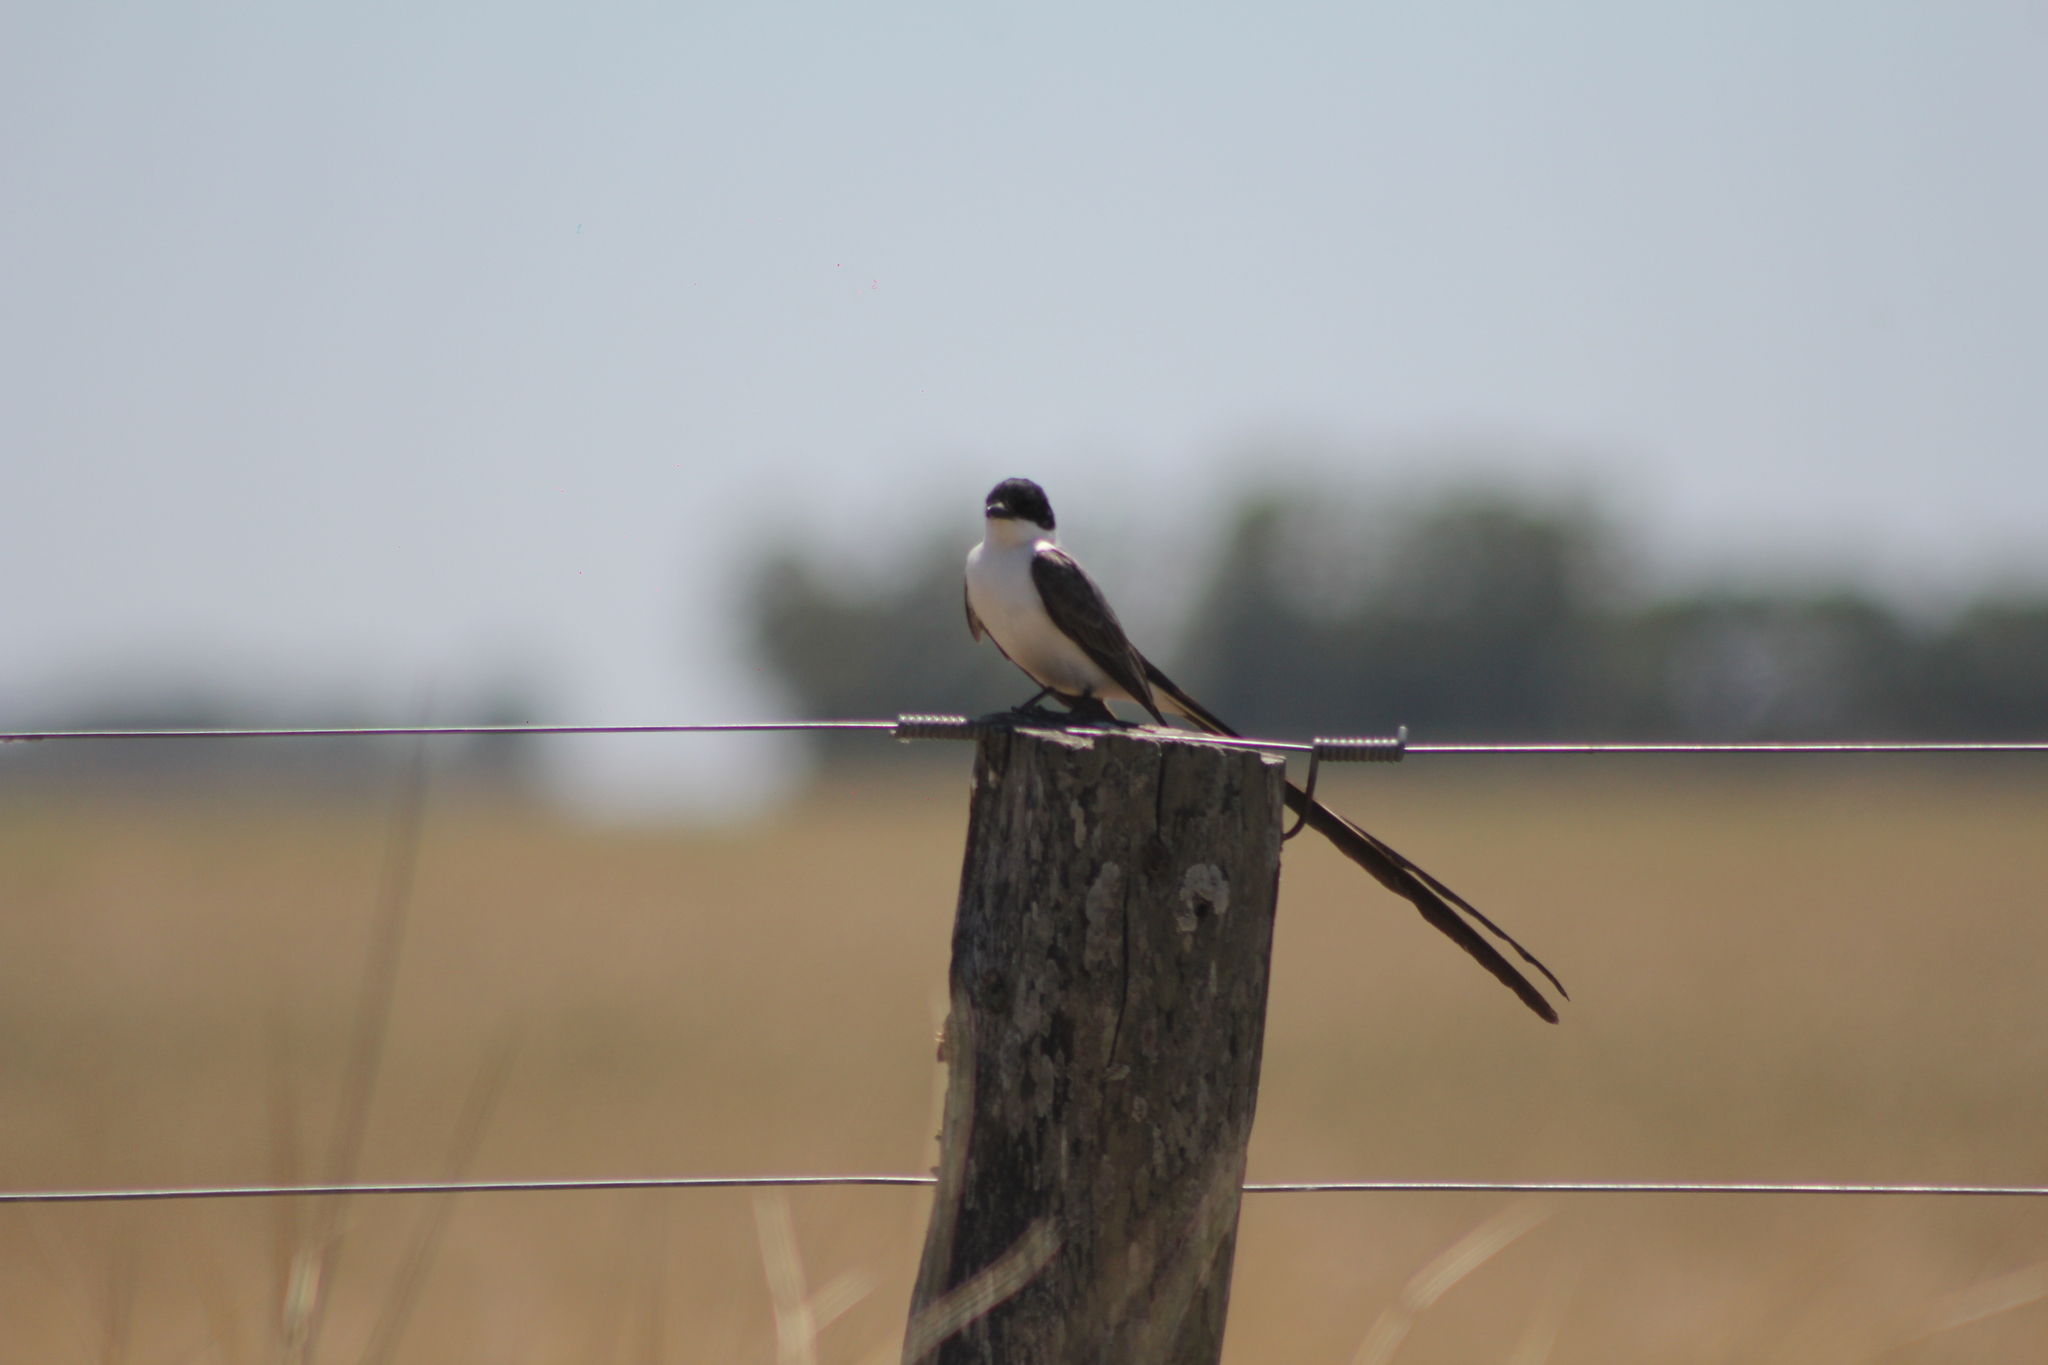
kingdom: Animalia
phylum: Chordata
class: Aves
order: Passeriformes
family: Tyrannidae
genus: Tyrannus
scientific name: Tyrannus savana
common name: Fork-tailed flycatcher
